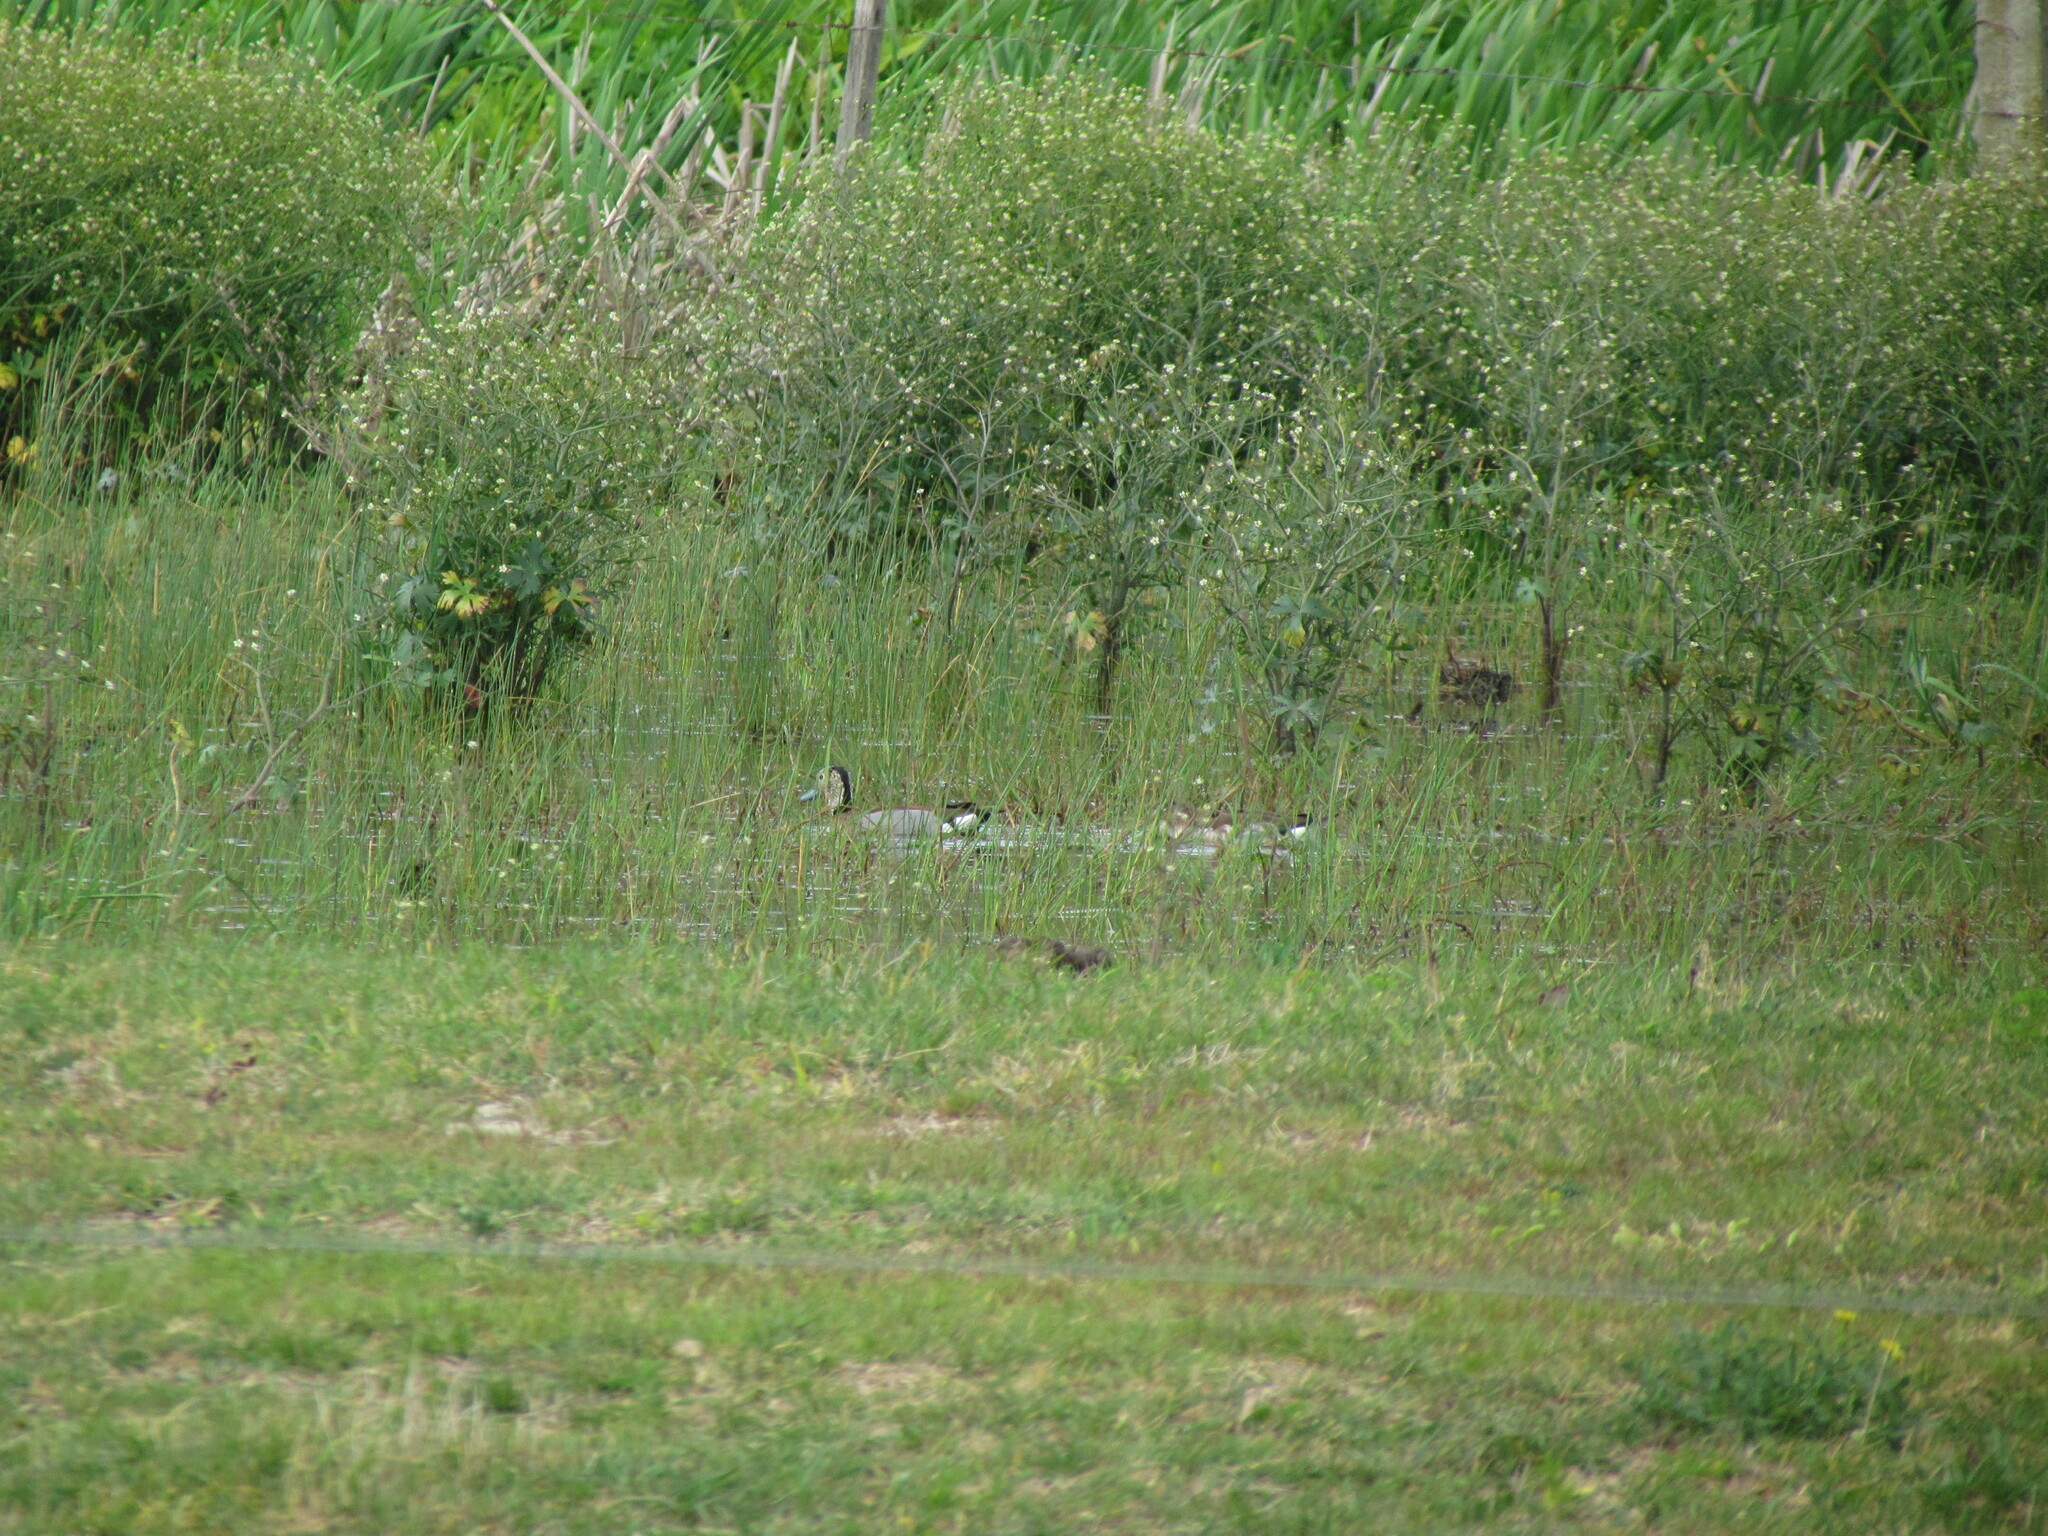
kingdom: Animalia
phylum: Chordata
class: Aves
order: Anseriformes
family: Anatidae
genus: Callonetta
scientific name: Callonetta leucophrys
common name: Ringed teal
